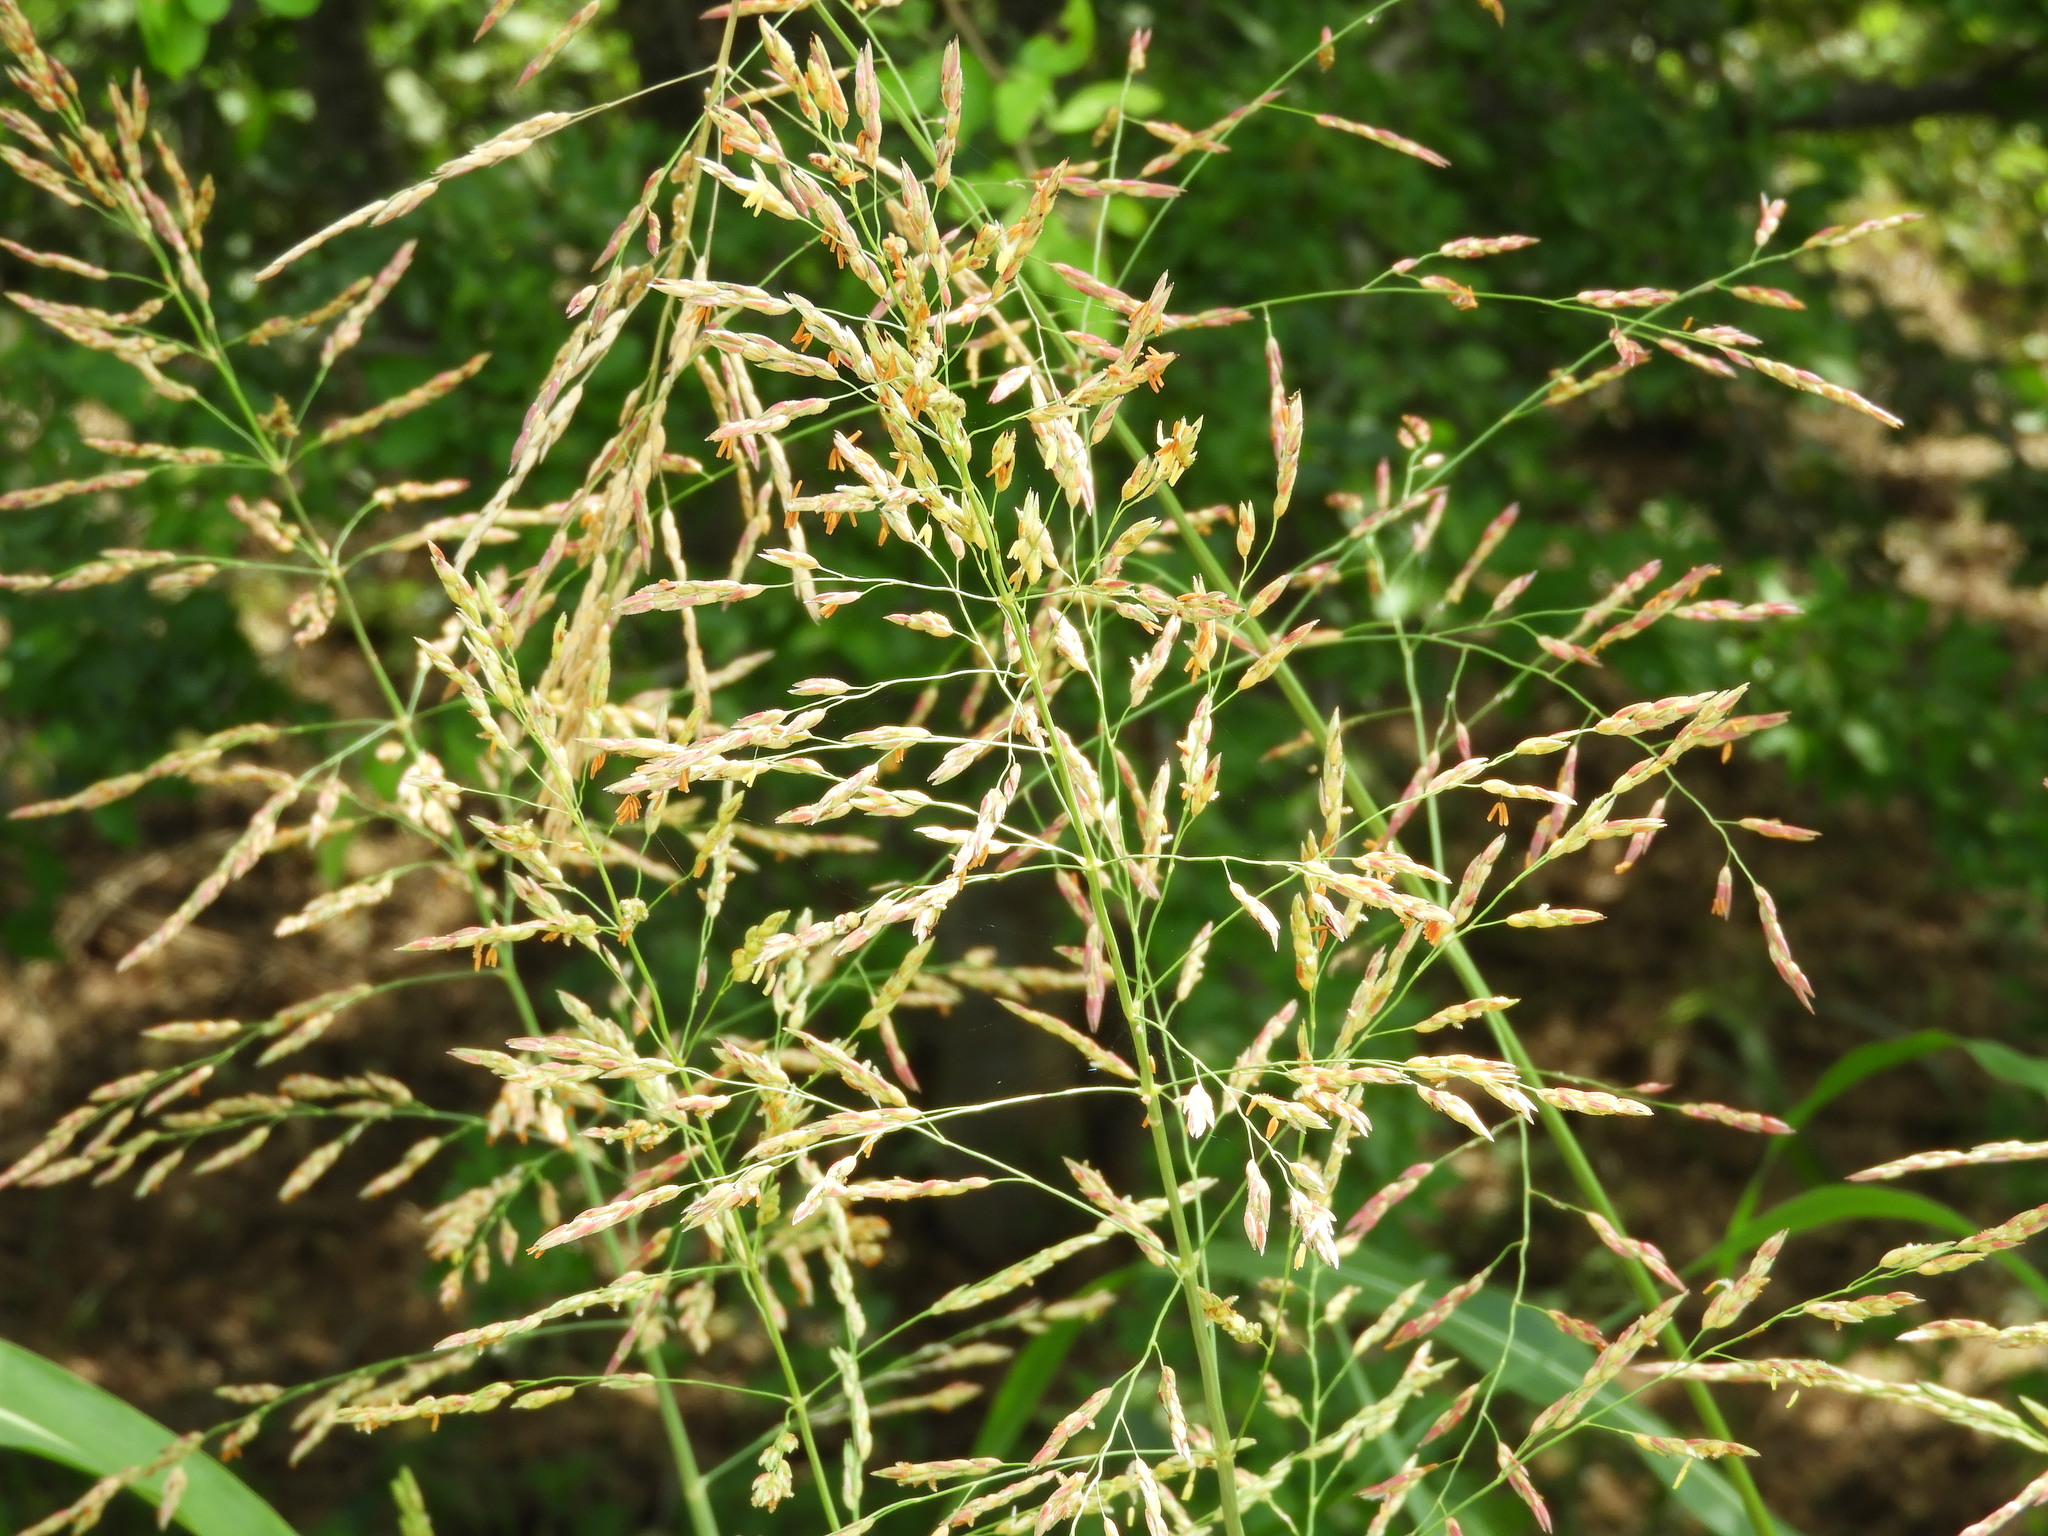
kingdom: Plantae
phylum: Tracheophyta
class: Liliopsida
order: Poales
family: Poaceae
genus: Sorghum
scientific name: Sorghum halepense
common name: Johnson-grass
